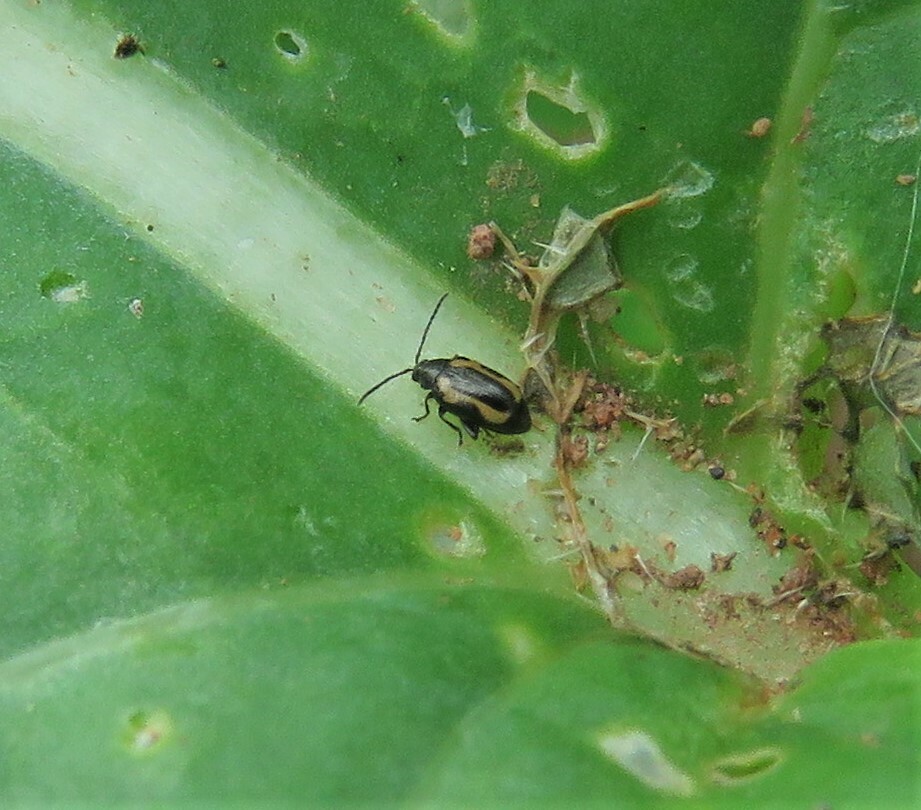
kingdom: Animalia
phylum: Arthropoda
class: Insecta
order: Coleoptera
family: Chrysomelidae
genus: Phyllotreta
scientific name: Phyllotreta striolata
